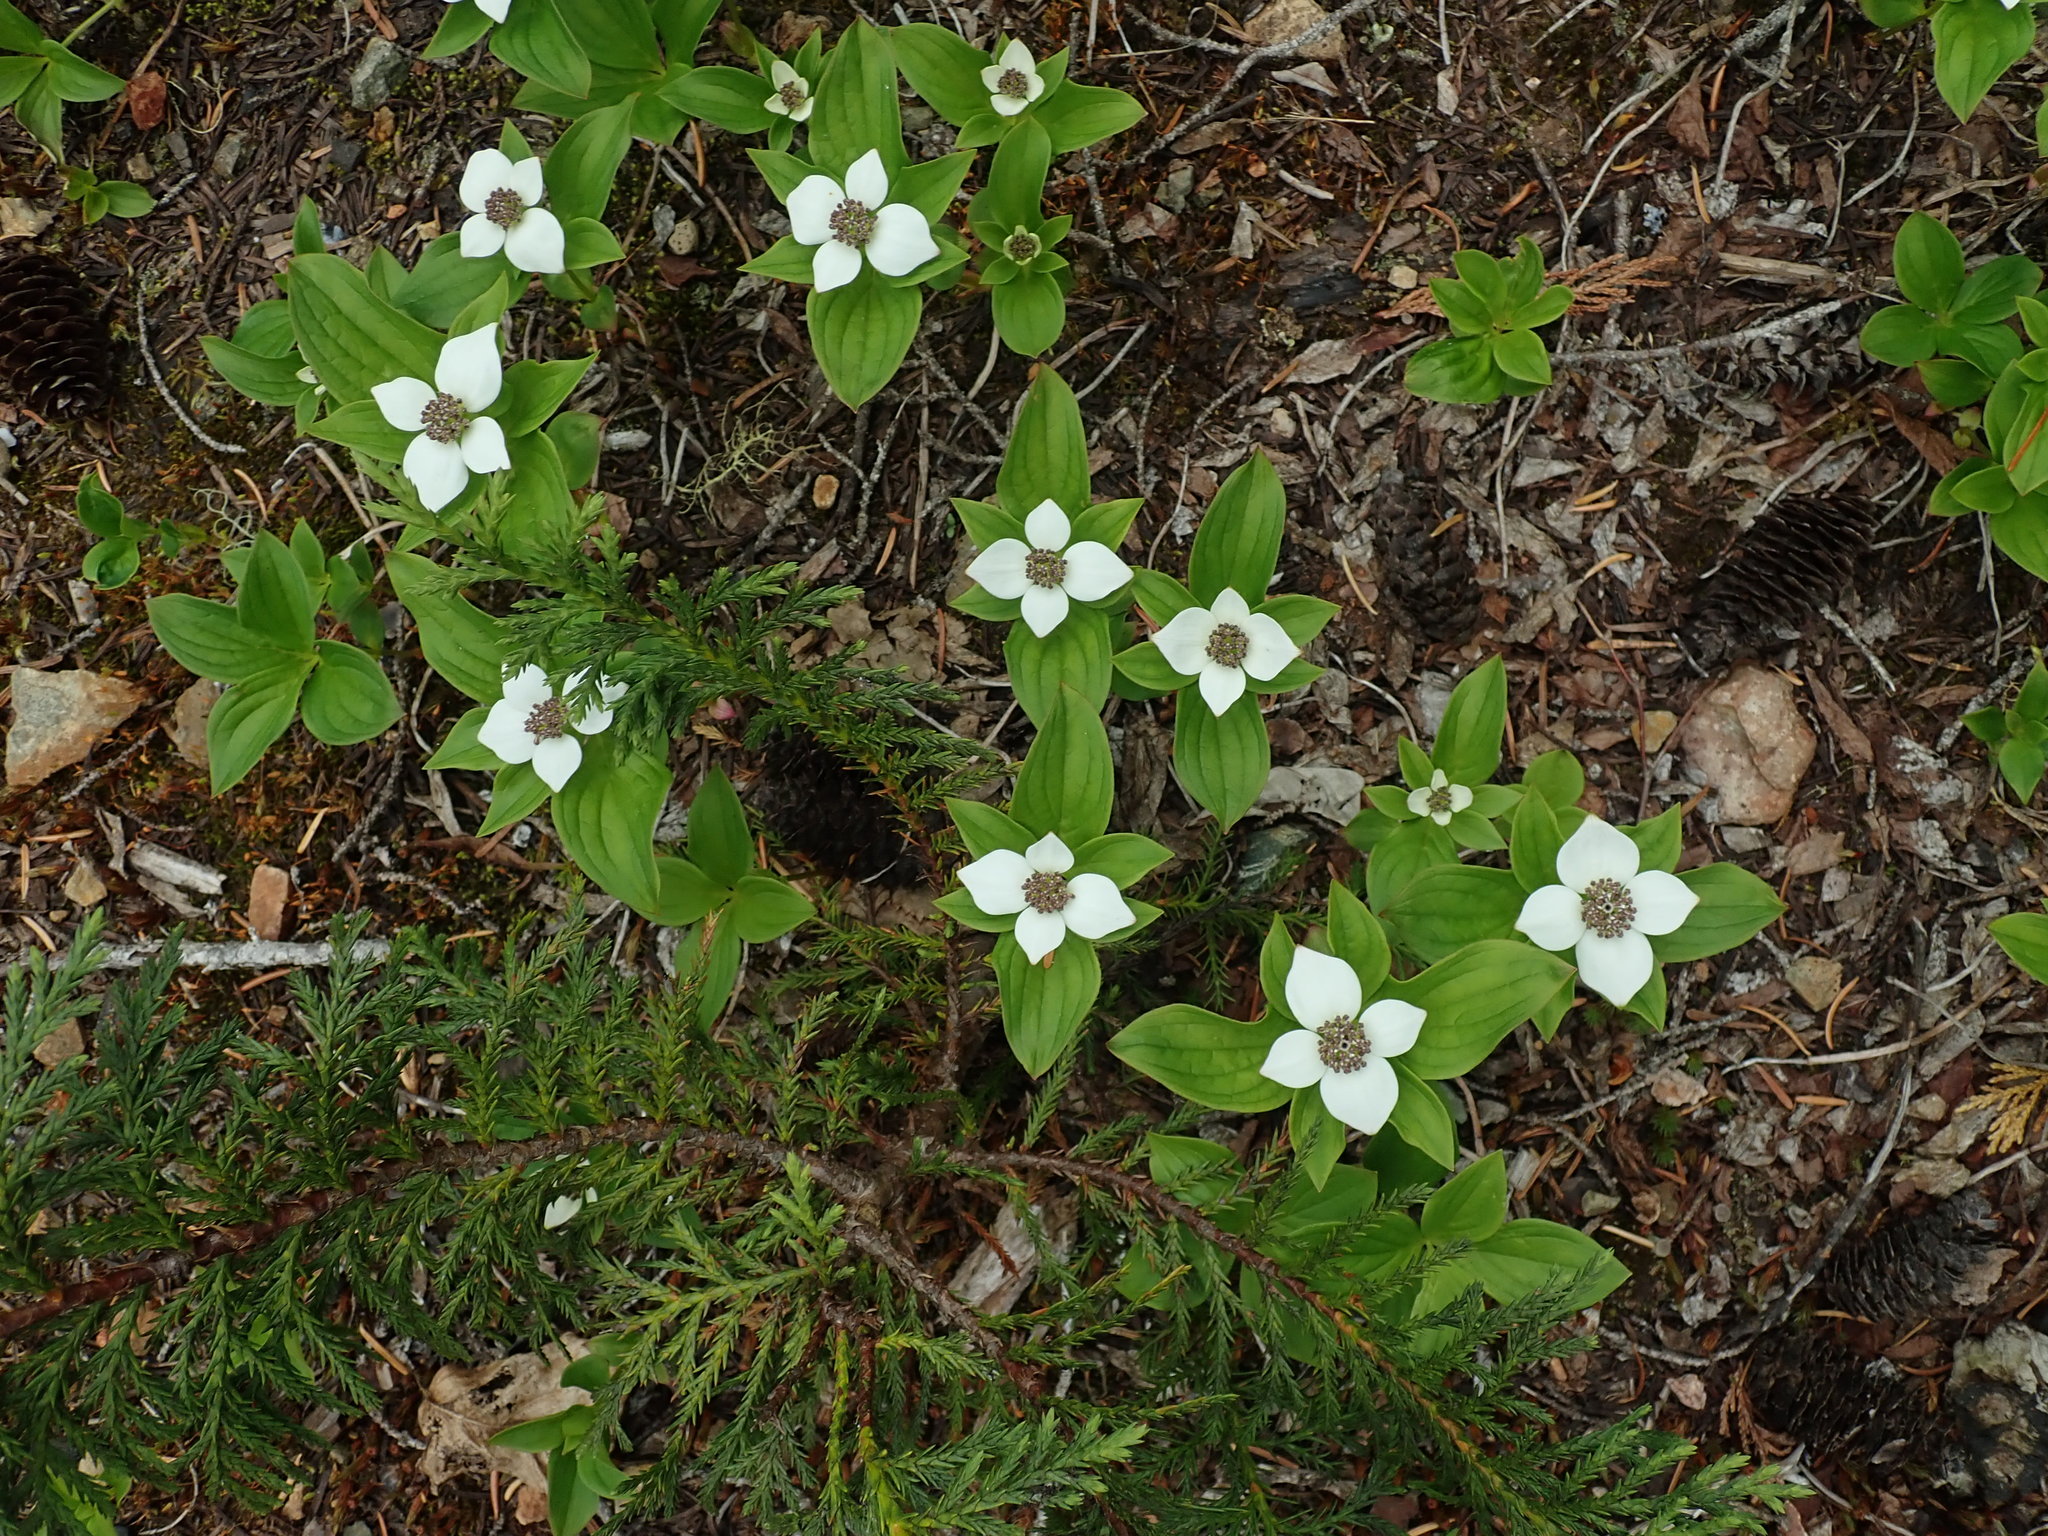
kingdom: Plantae
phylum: Tracheophyta
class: Magnoliopsida
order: Cornales
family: Cornaceae
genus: Cornus
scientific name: Cornus unalaschkensis
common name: Alaska bunchberry
